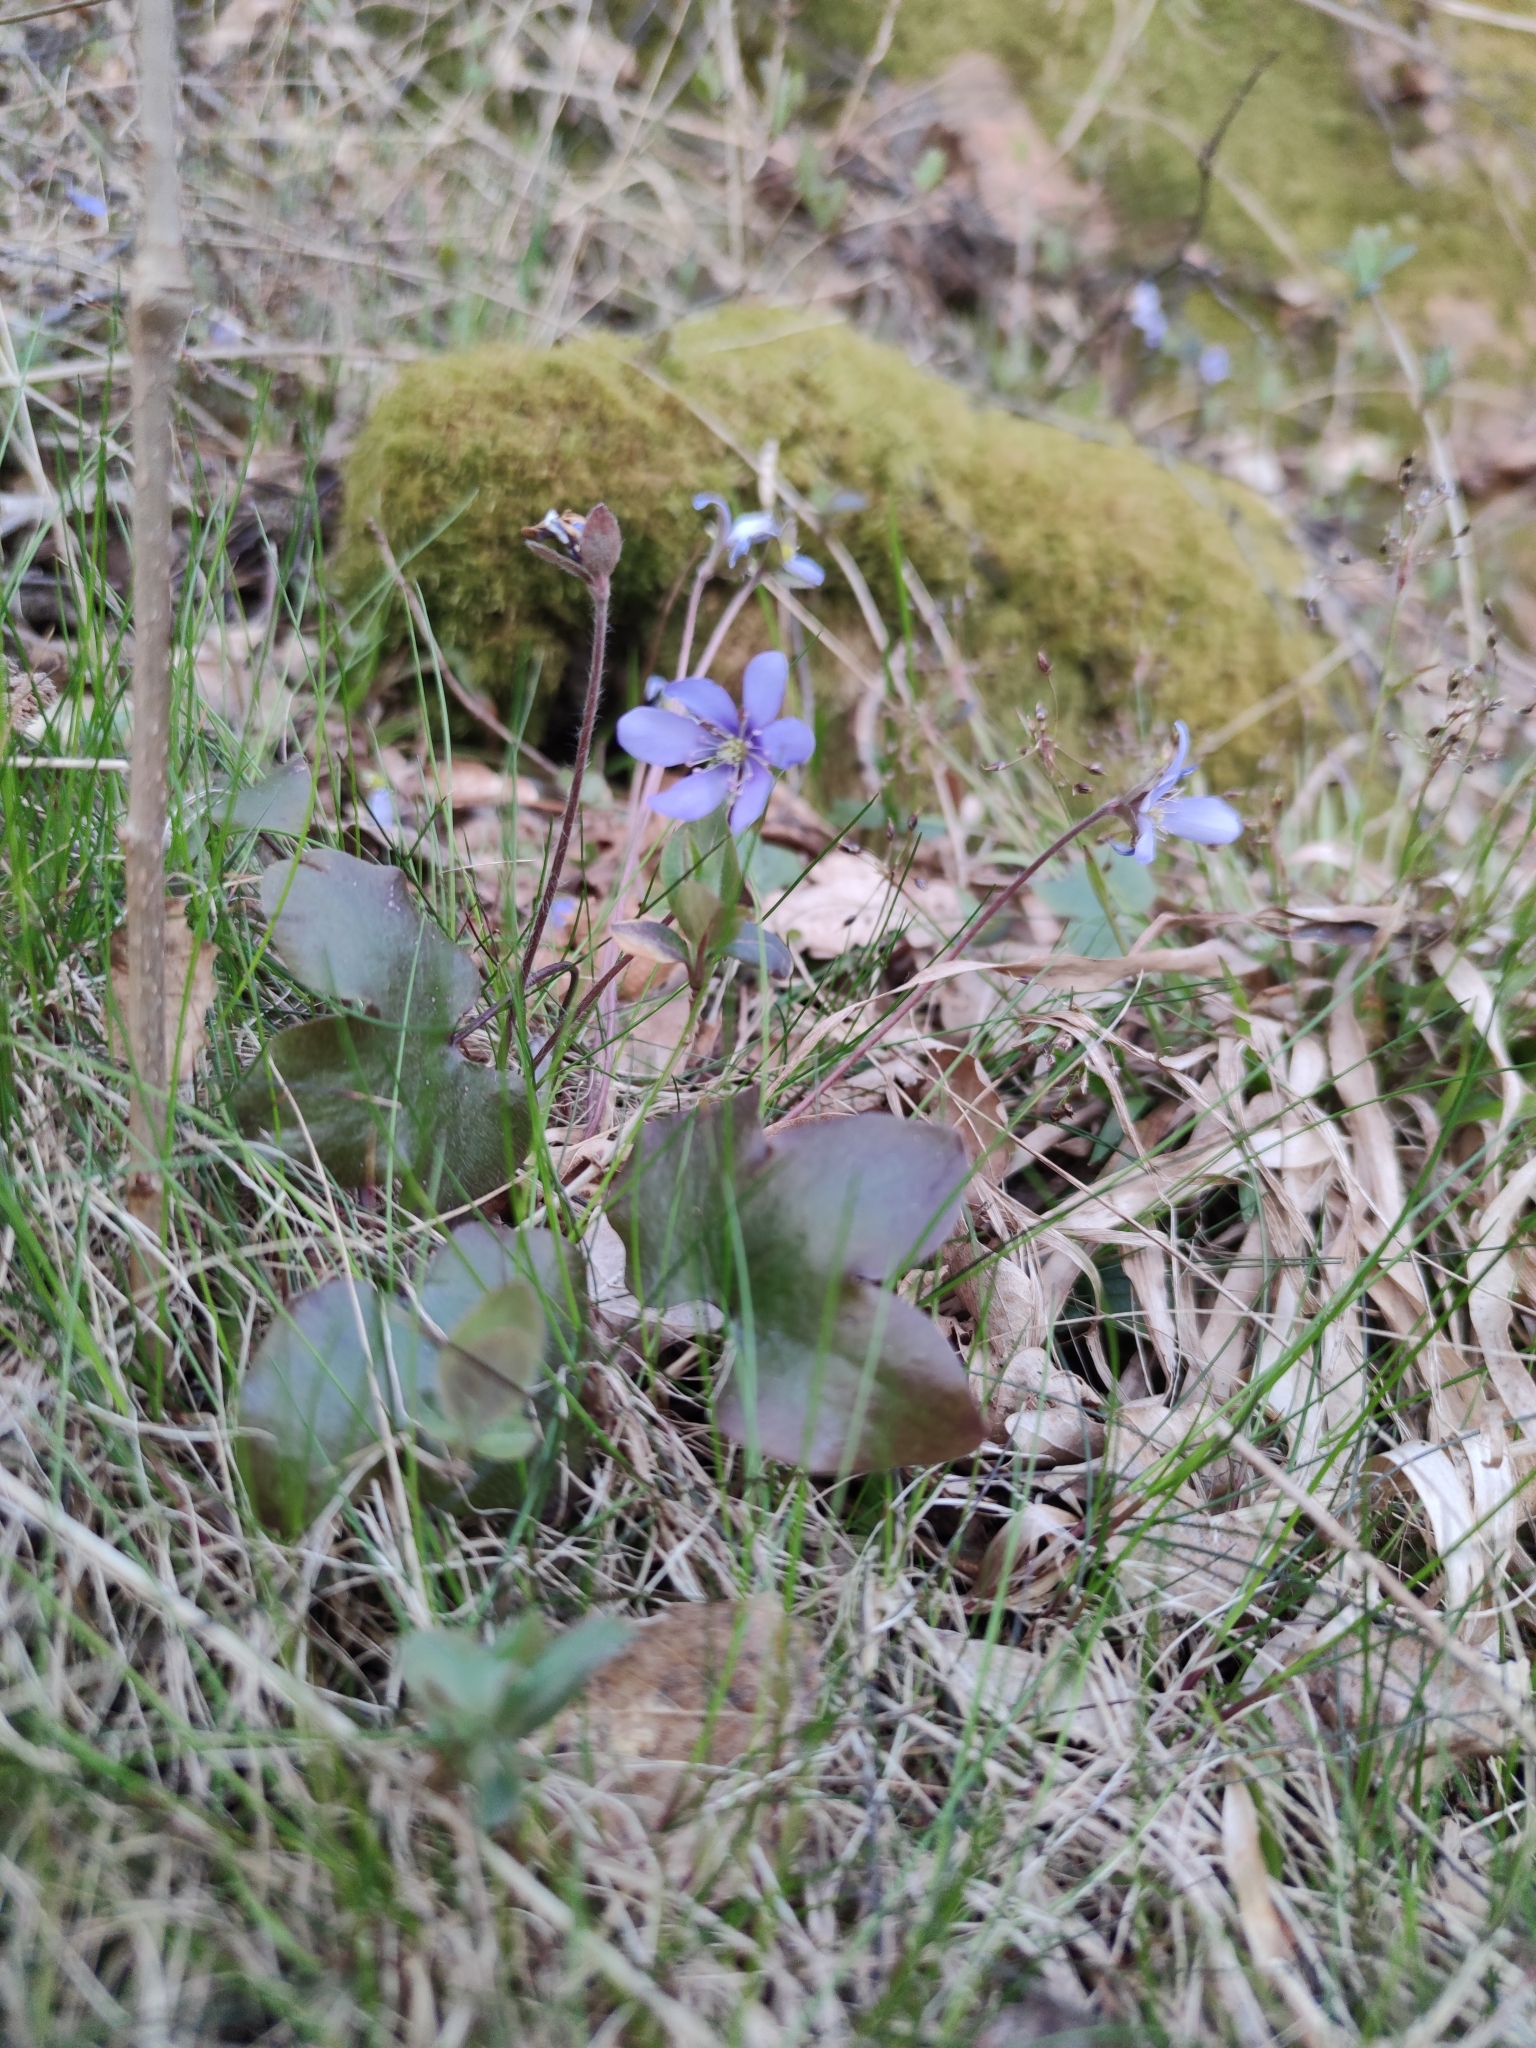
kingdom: Plantae
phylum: Tracheophyta
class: Magnoliopsida
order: Ranunculales
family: Ranunculaceae
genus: Hepatica
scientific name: Hepatica nobilis
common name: Liverleaf
